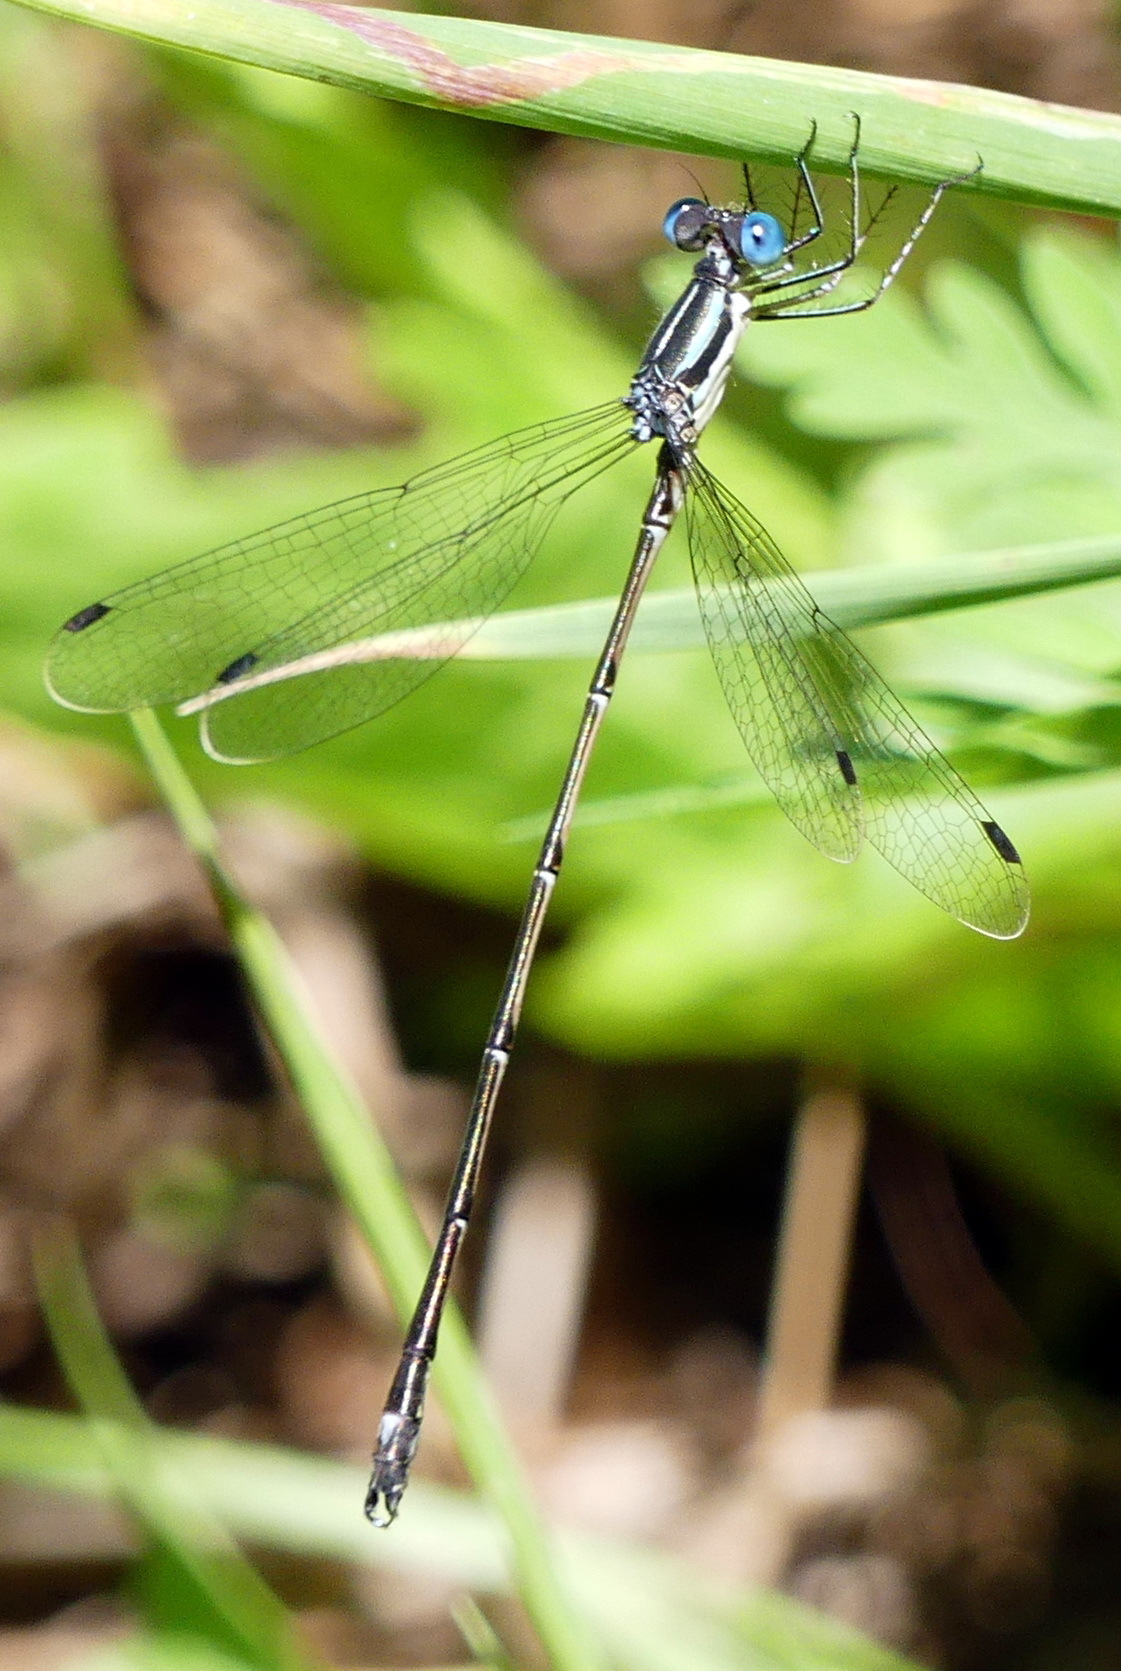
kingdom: Animalia
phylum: Arthropoda
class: Insecta
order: Odonata
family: Lestidae
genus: Lestes
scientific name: Lestes rectangularis
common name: Slender spreadwing
